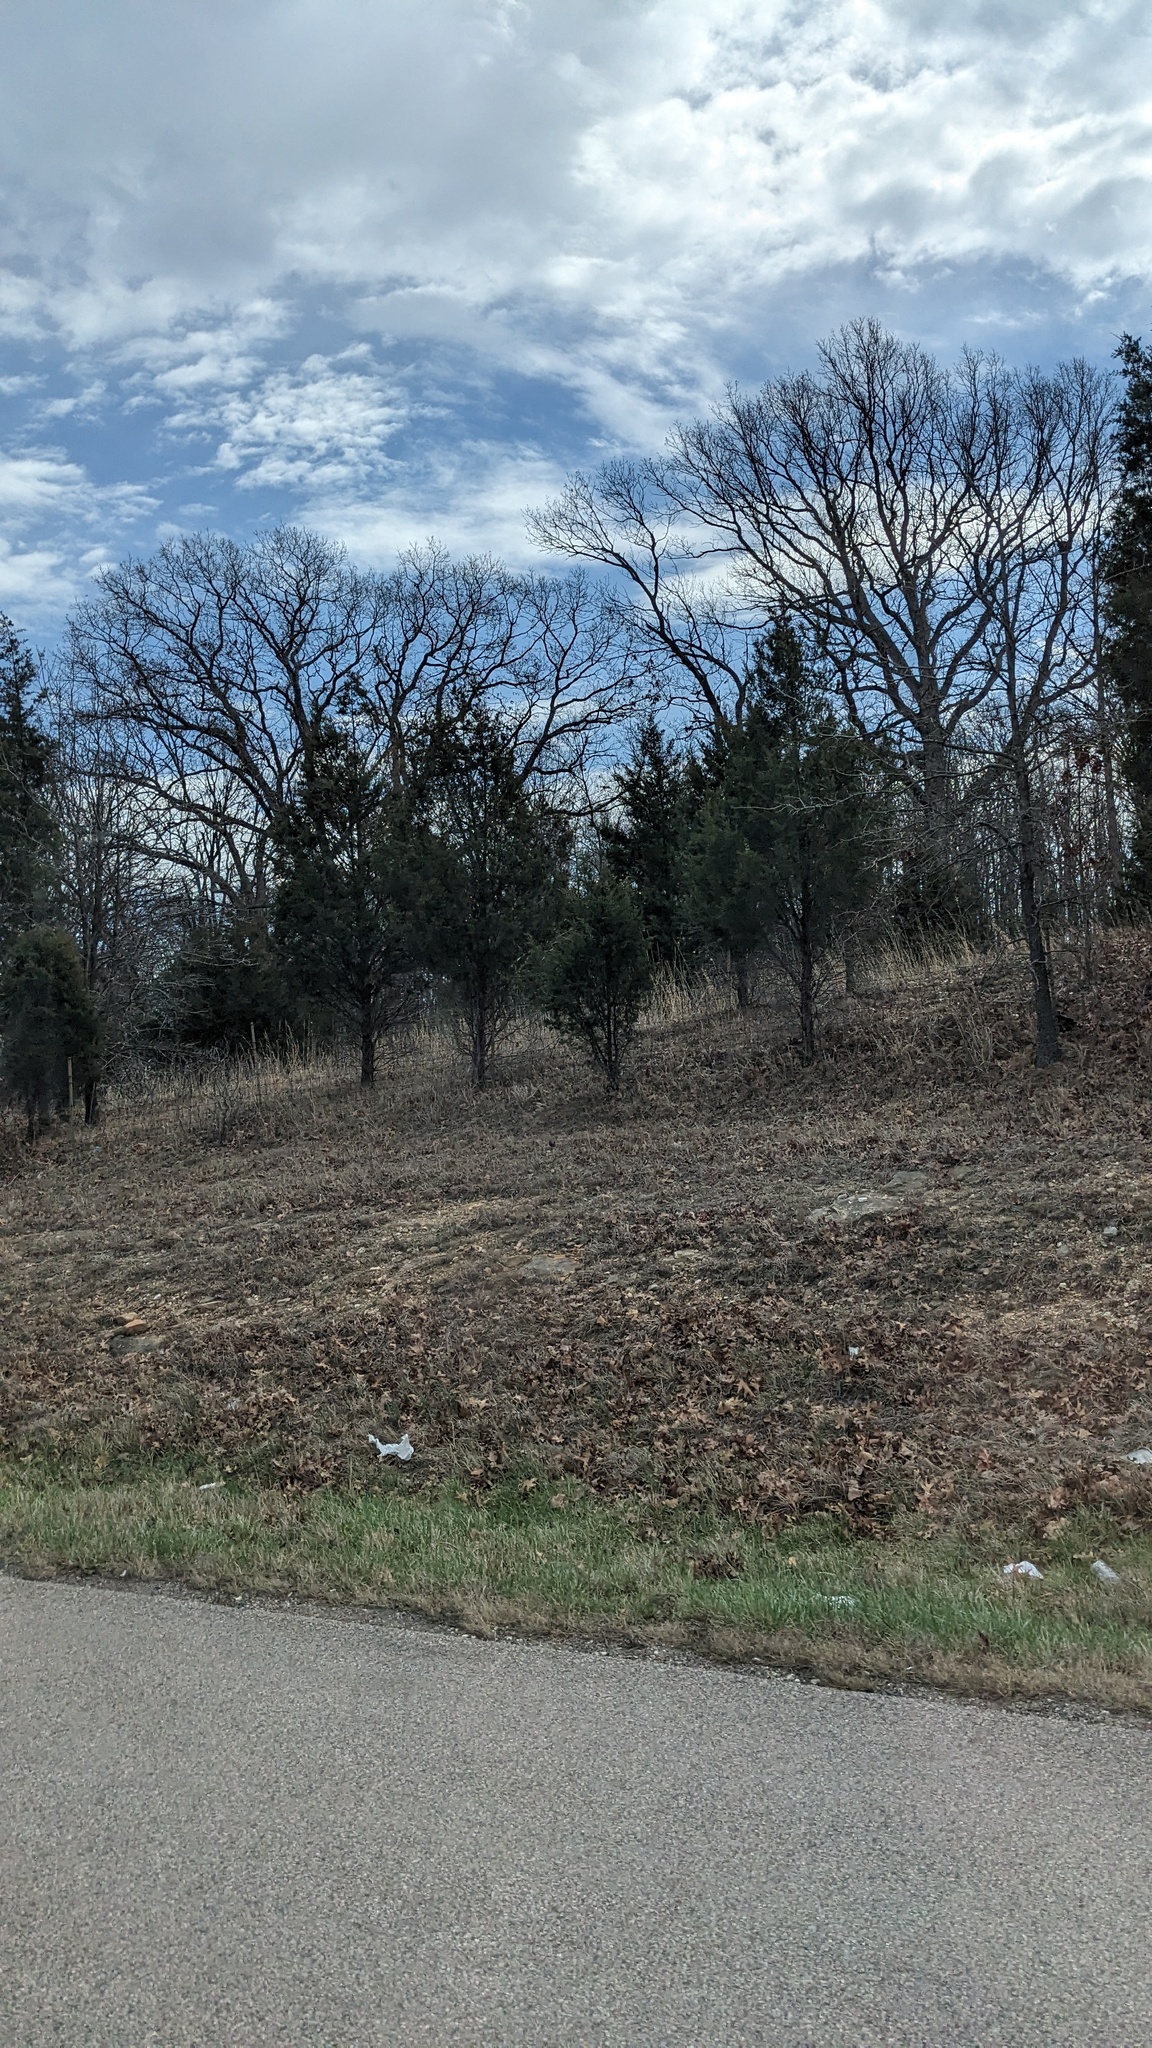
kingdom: Plantae
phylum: Tracheophyta
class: Pinopsida
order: Pinales
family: Cupressaceae
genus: Juniperus
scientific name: Juniperus virginiana
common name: Red juniper
